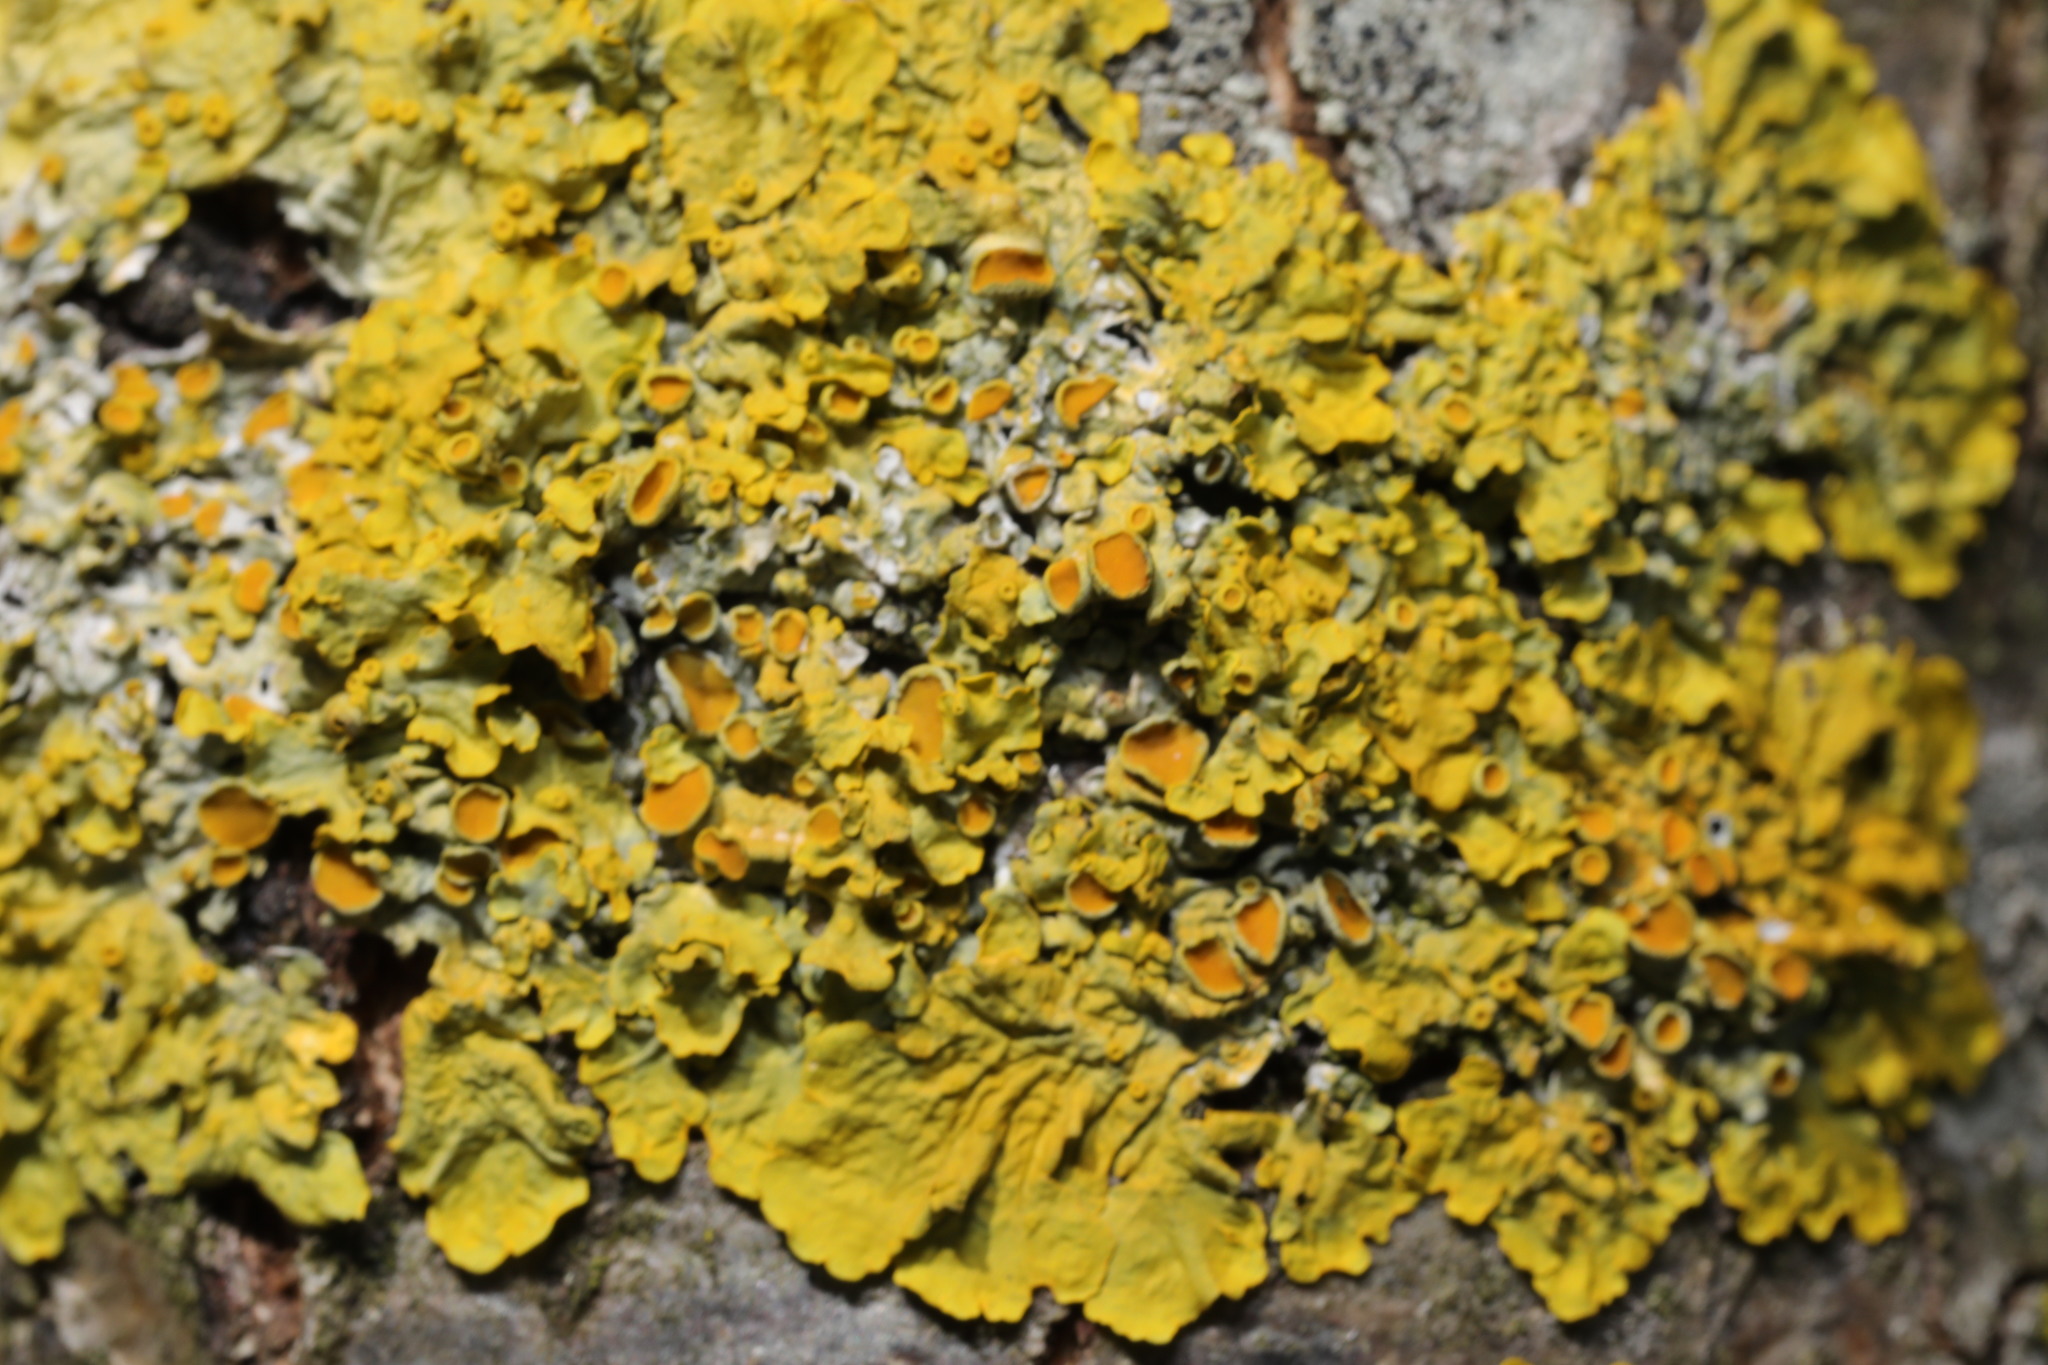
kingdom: Fungi
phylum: Ascomycota
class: Lecanoromycetes
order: Teloschistales
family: Teloschistaceae
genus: Xanthoria
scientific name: Xanthoria parietina
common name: Common orange lichen
